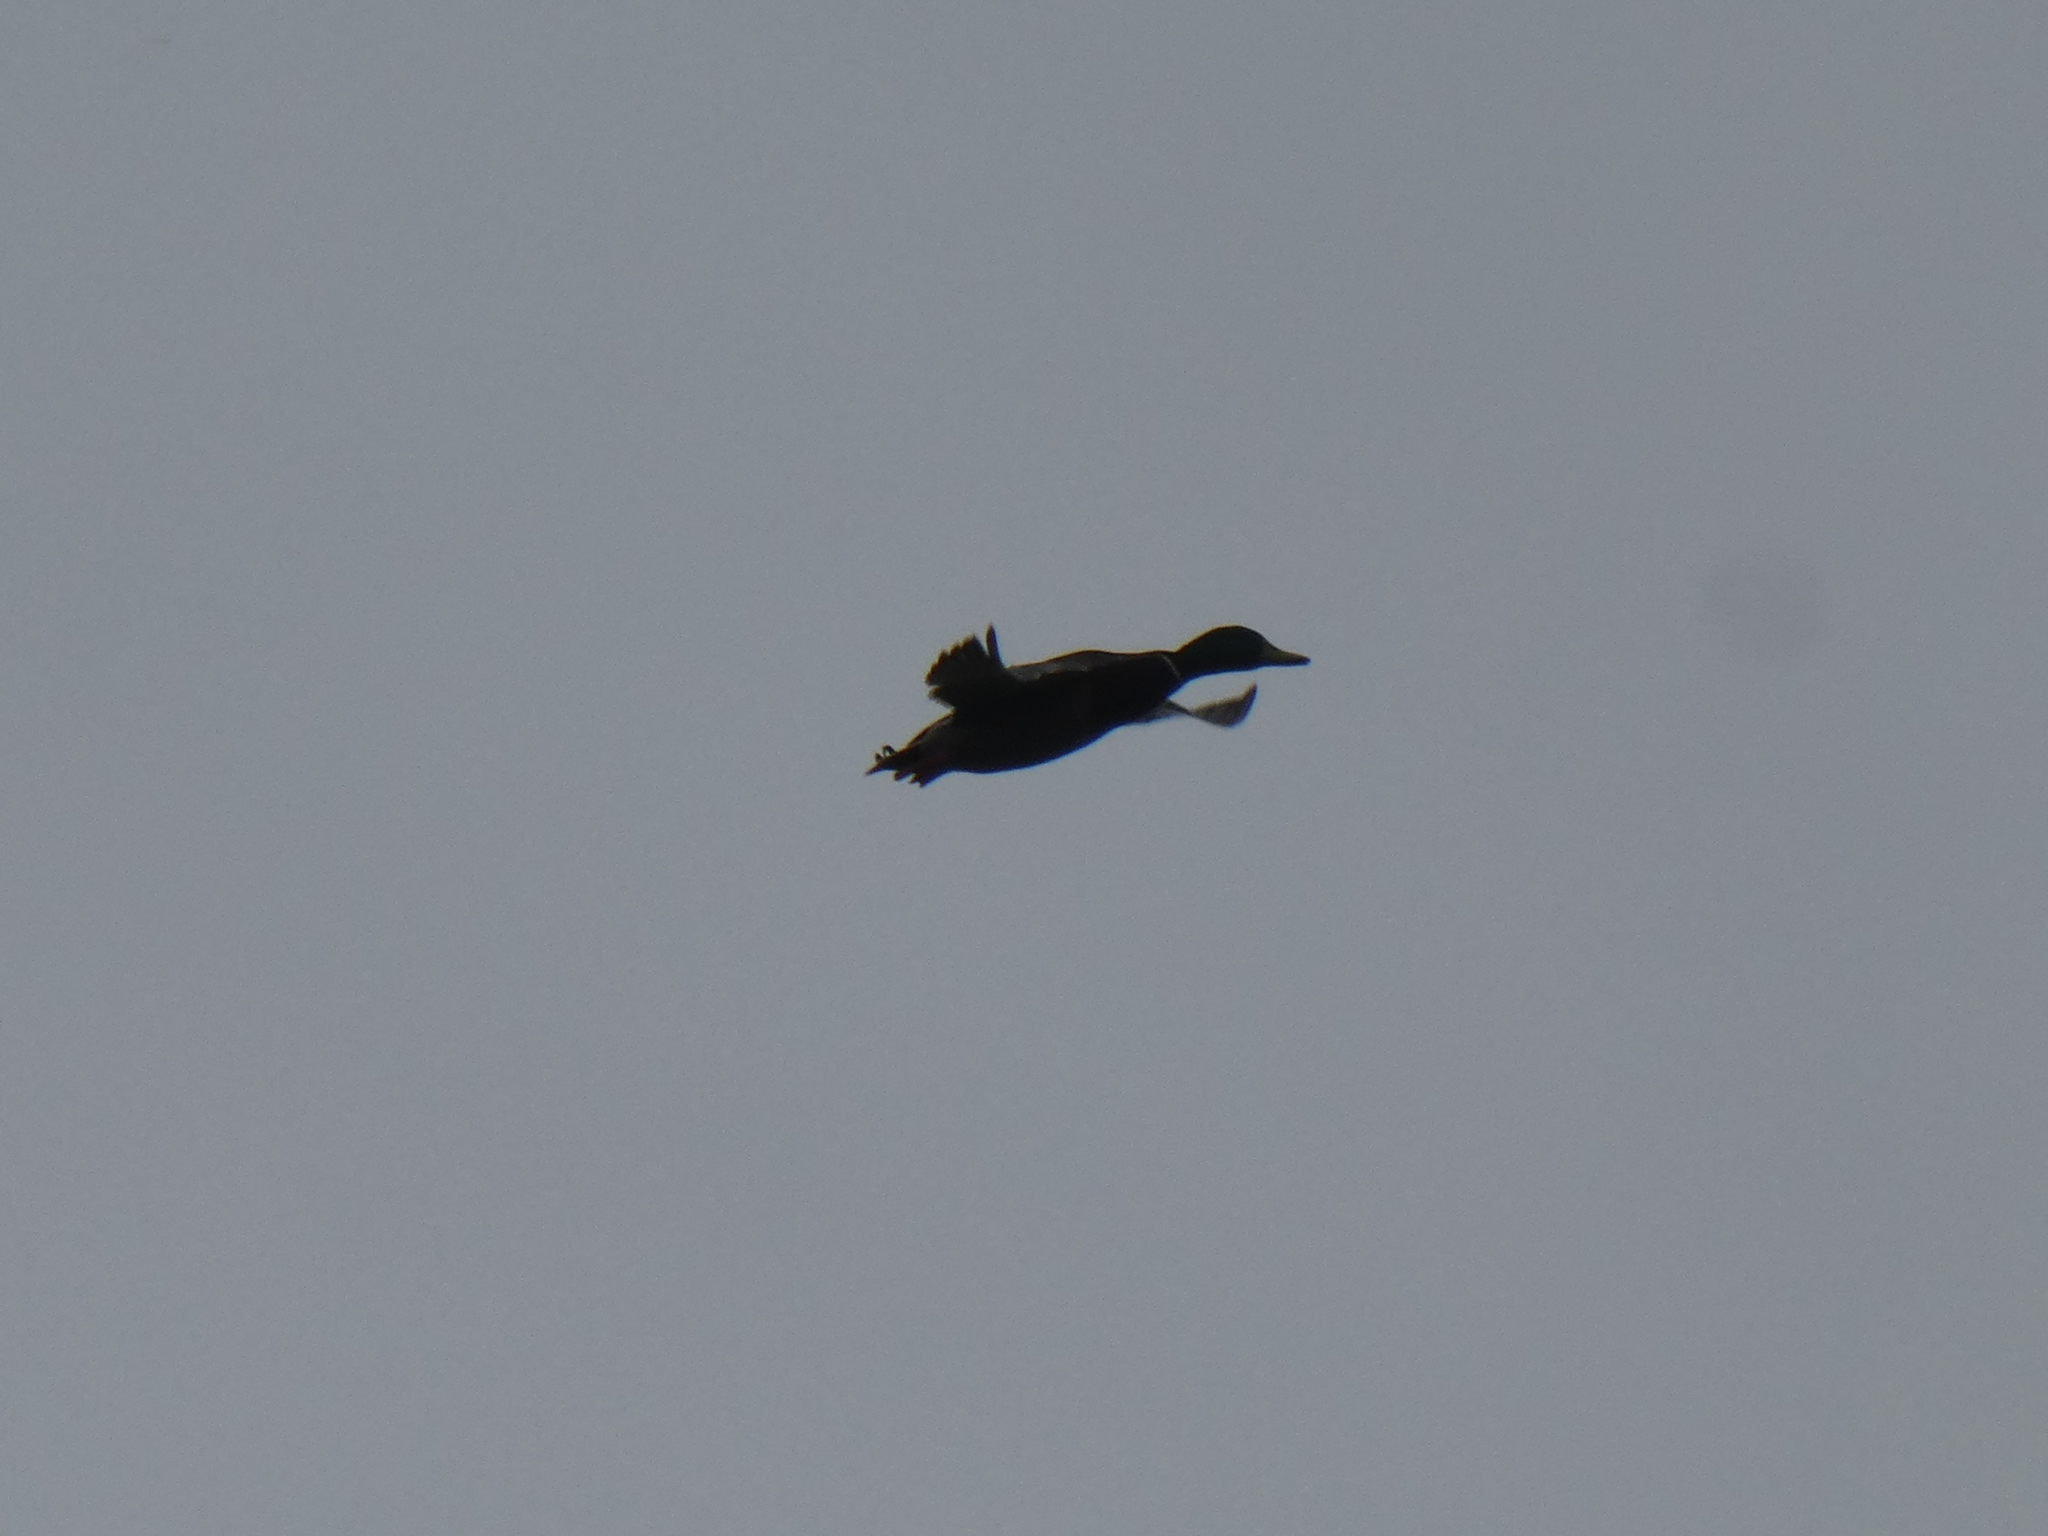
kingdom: Animalia
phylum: Chordata
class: Aves
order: Anseriformes
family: Anatidae
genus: Anas
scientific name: Anas platyrhynchos
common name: Mallard
